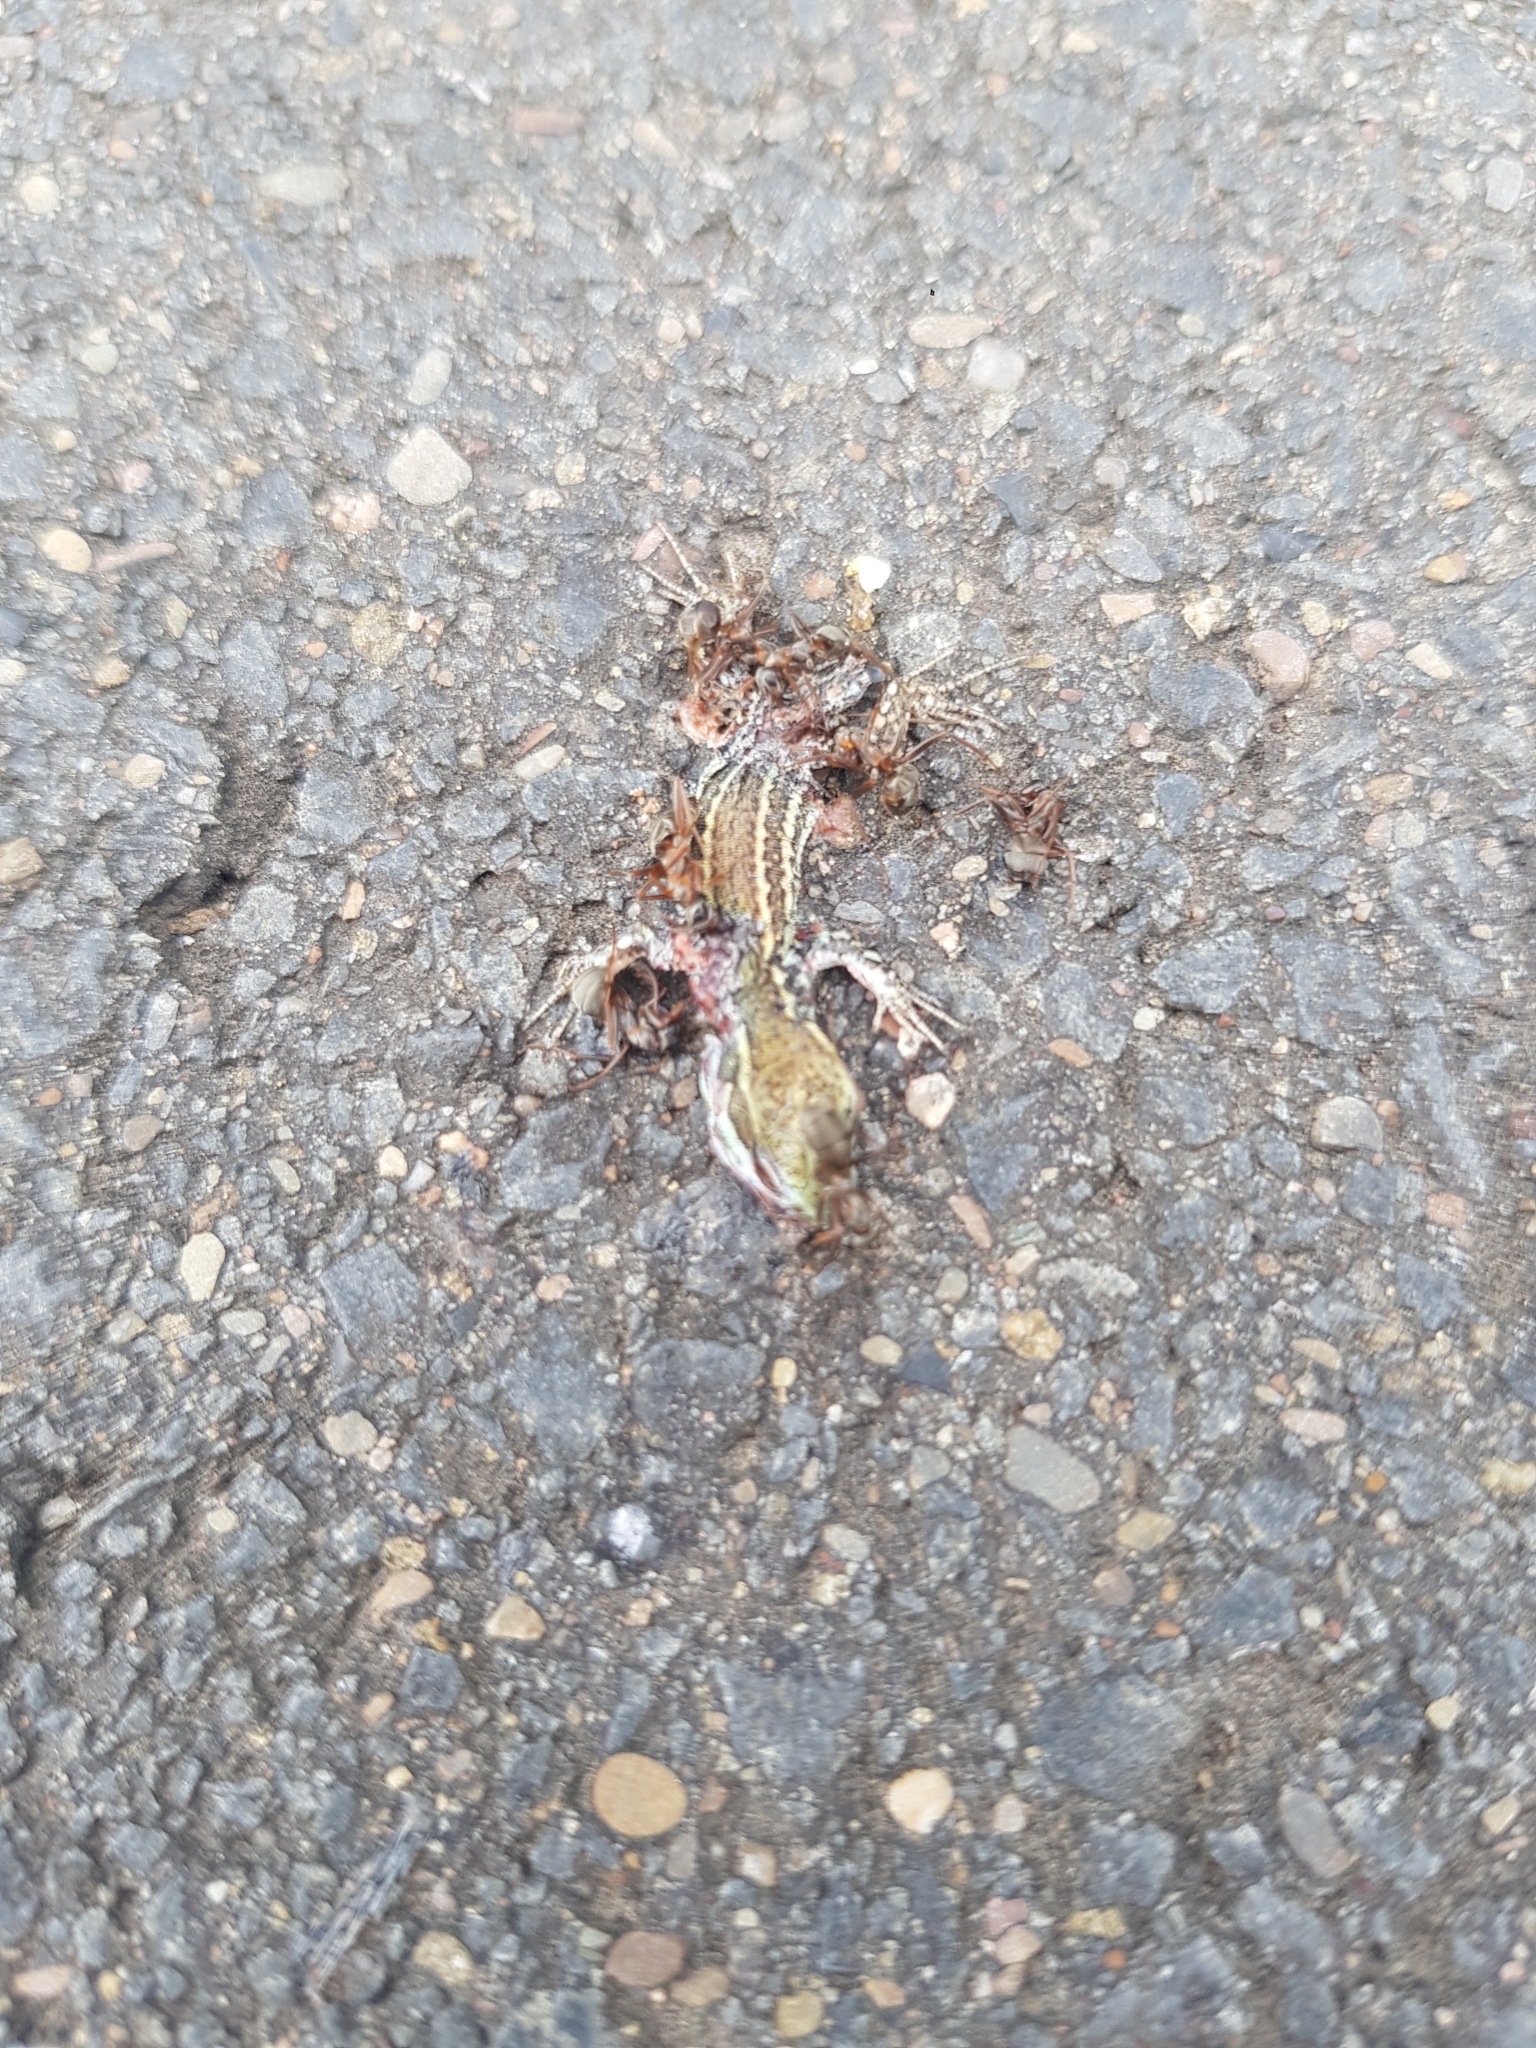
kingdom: Animalia
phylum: Chordata
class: Squamata
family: Lacertidae
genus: Podarcis
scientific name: Podarcis muralis
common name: Common wall lizard
